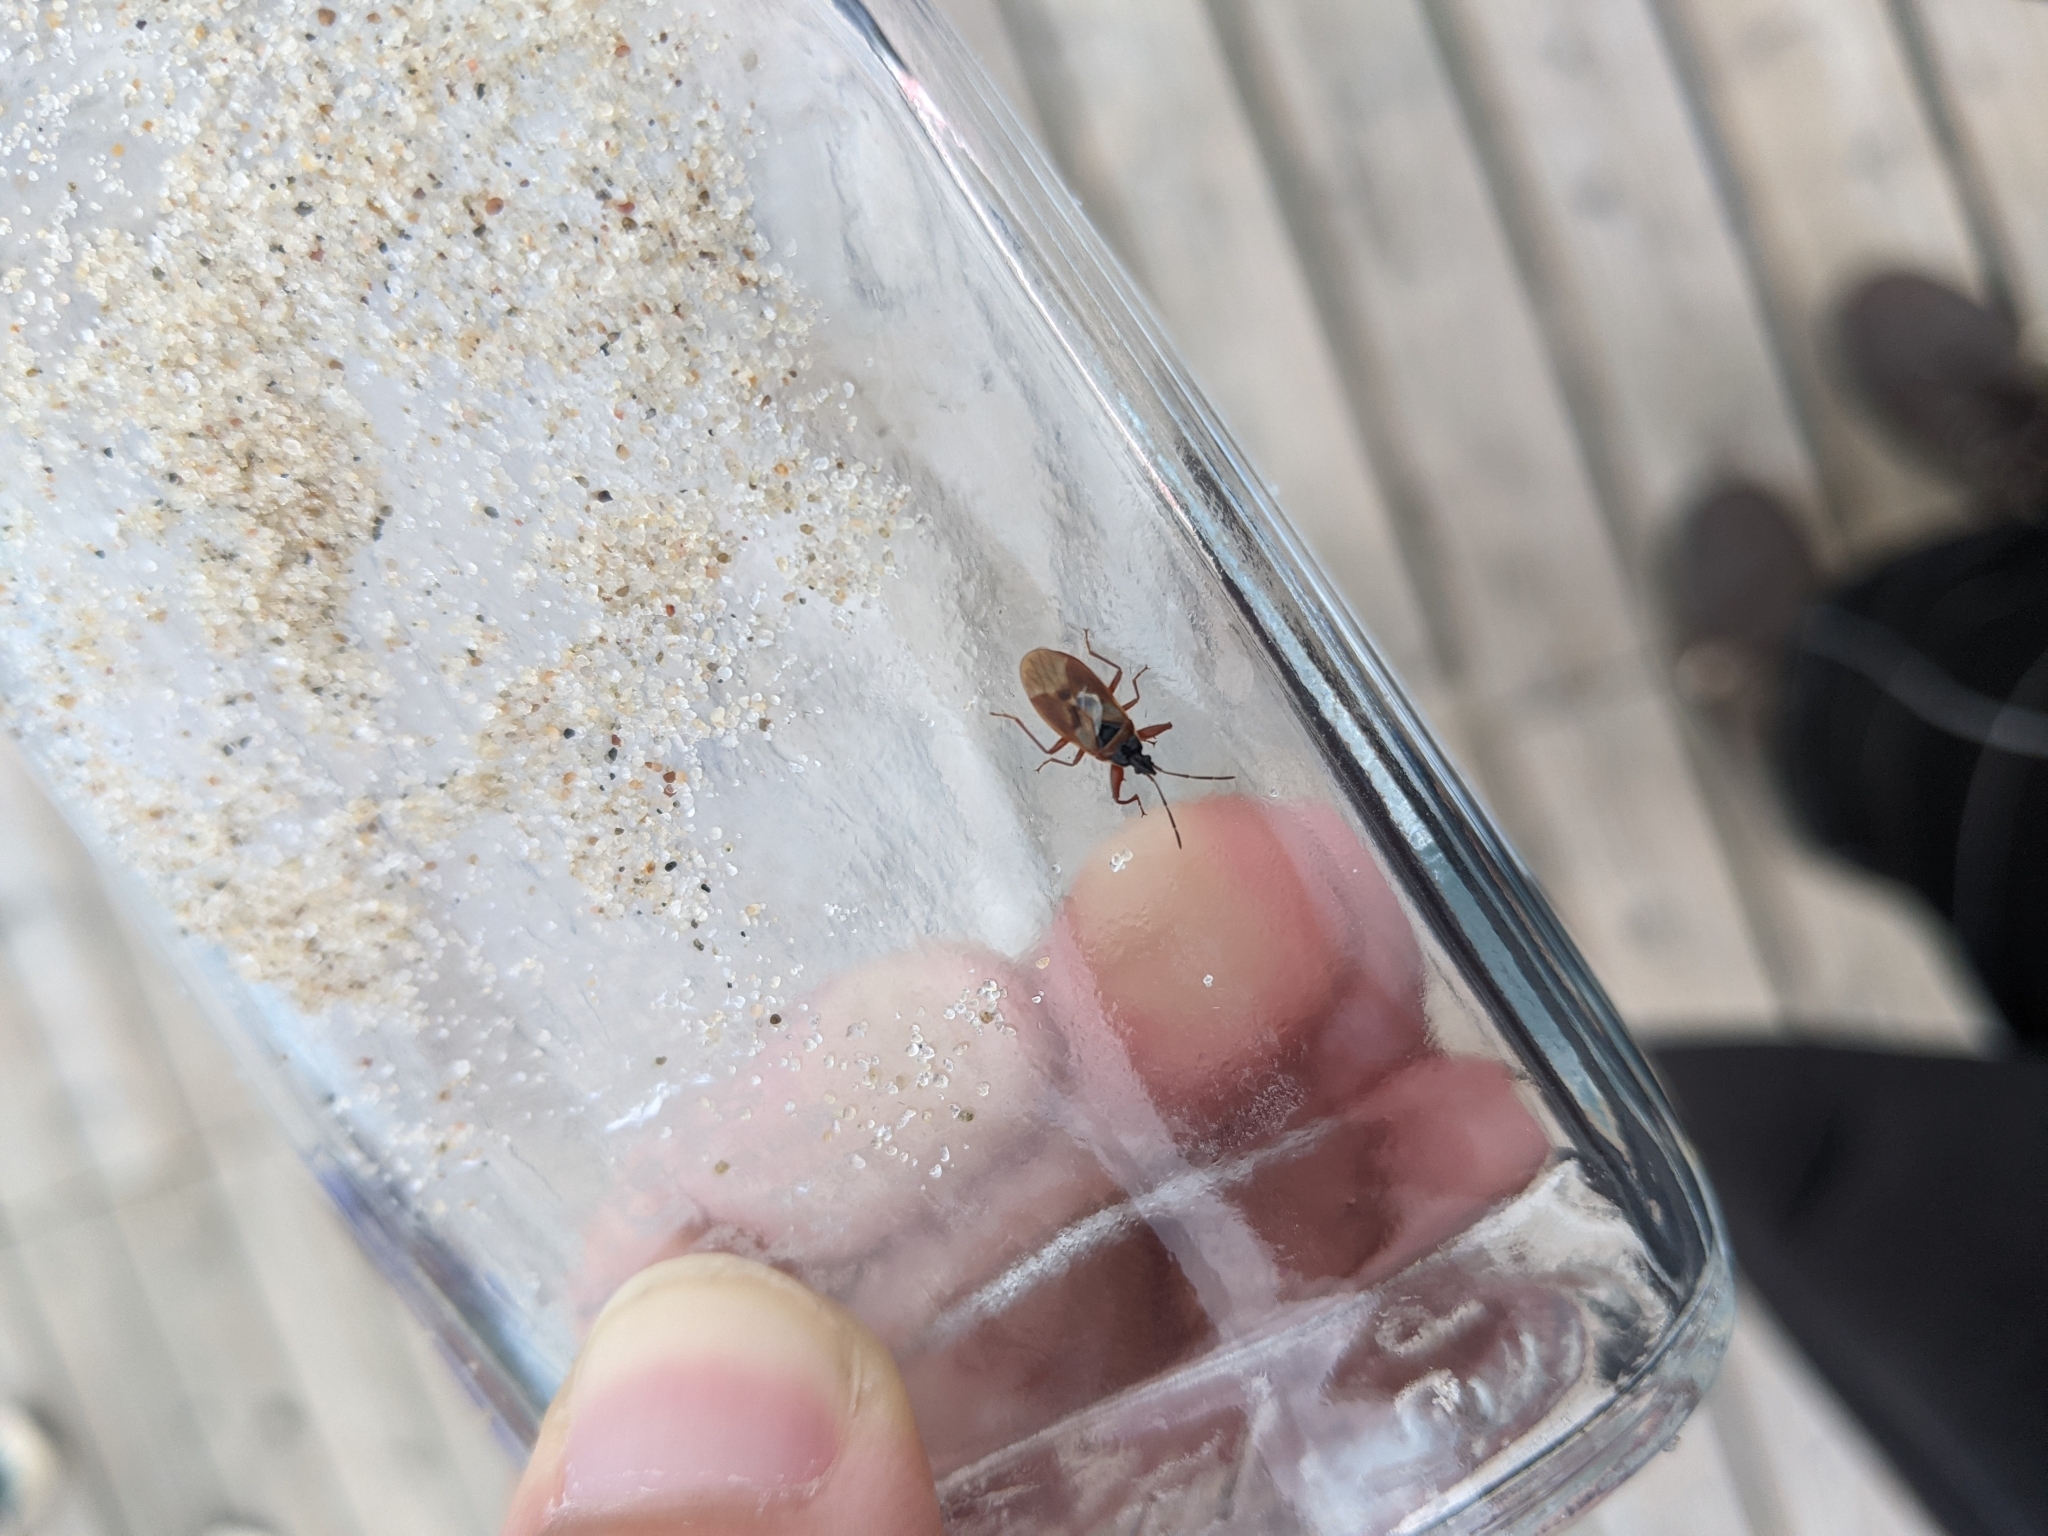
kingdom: Animalia
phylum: Arthropoda
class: Insecta
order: Hemiptera
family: Rhyparochromidae
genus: Gastrodes
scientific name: Gastrodes abietum
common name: Spruce cone bug
